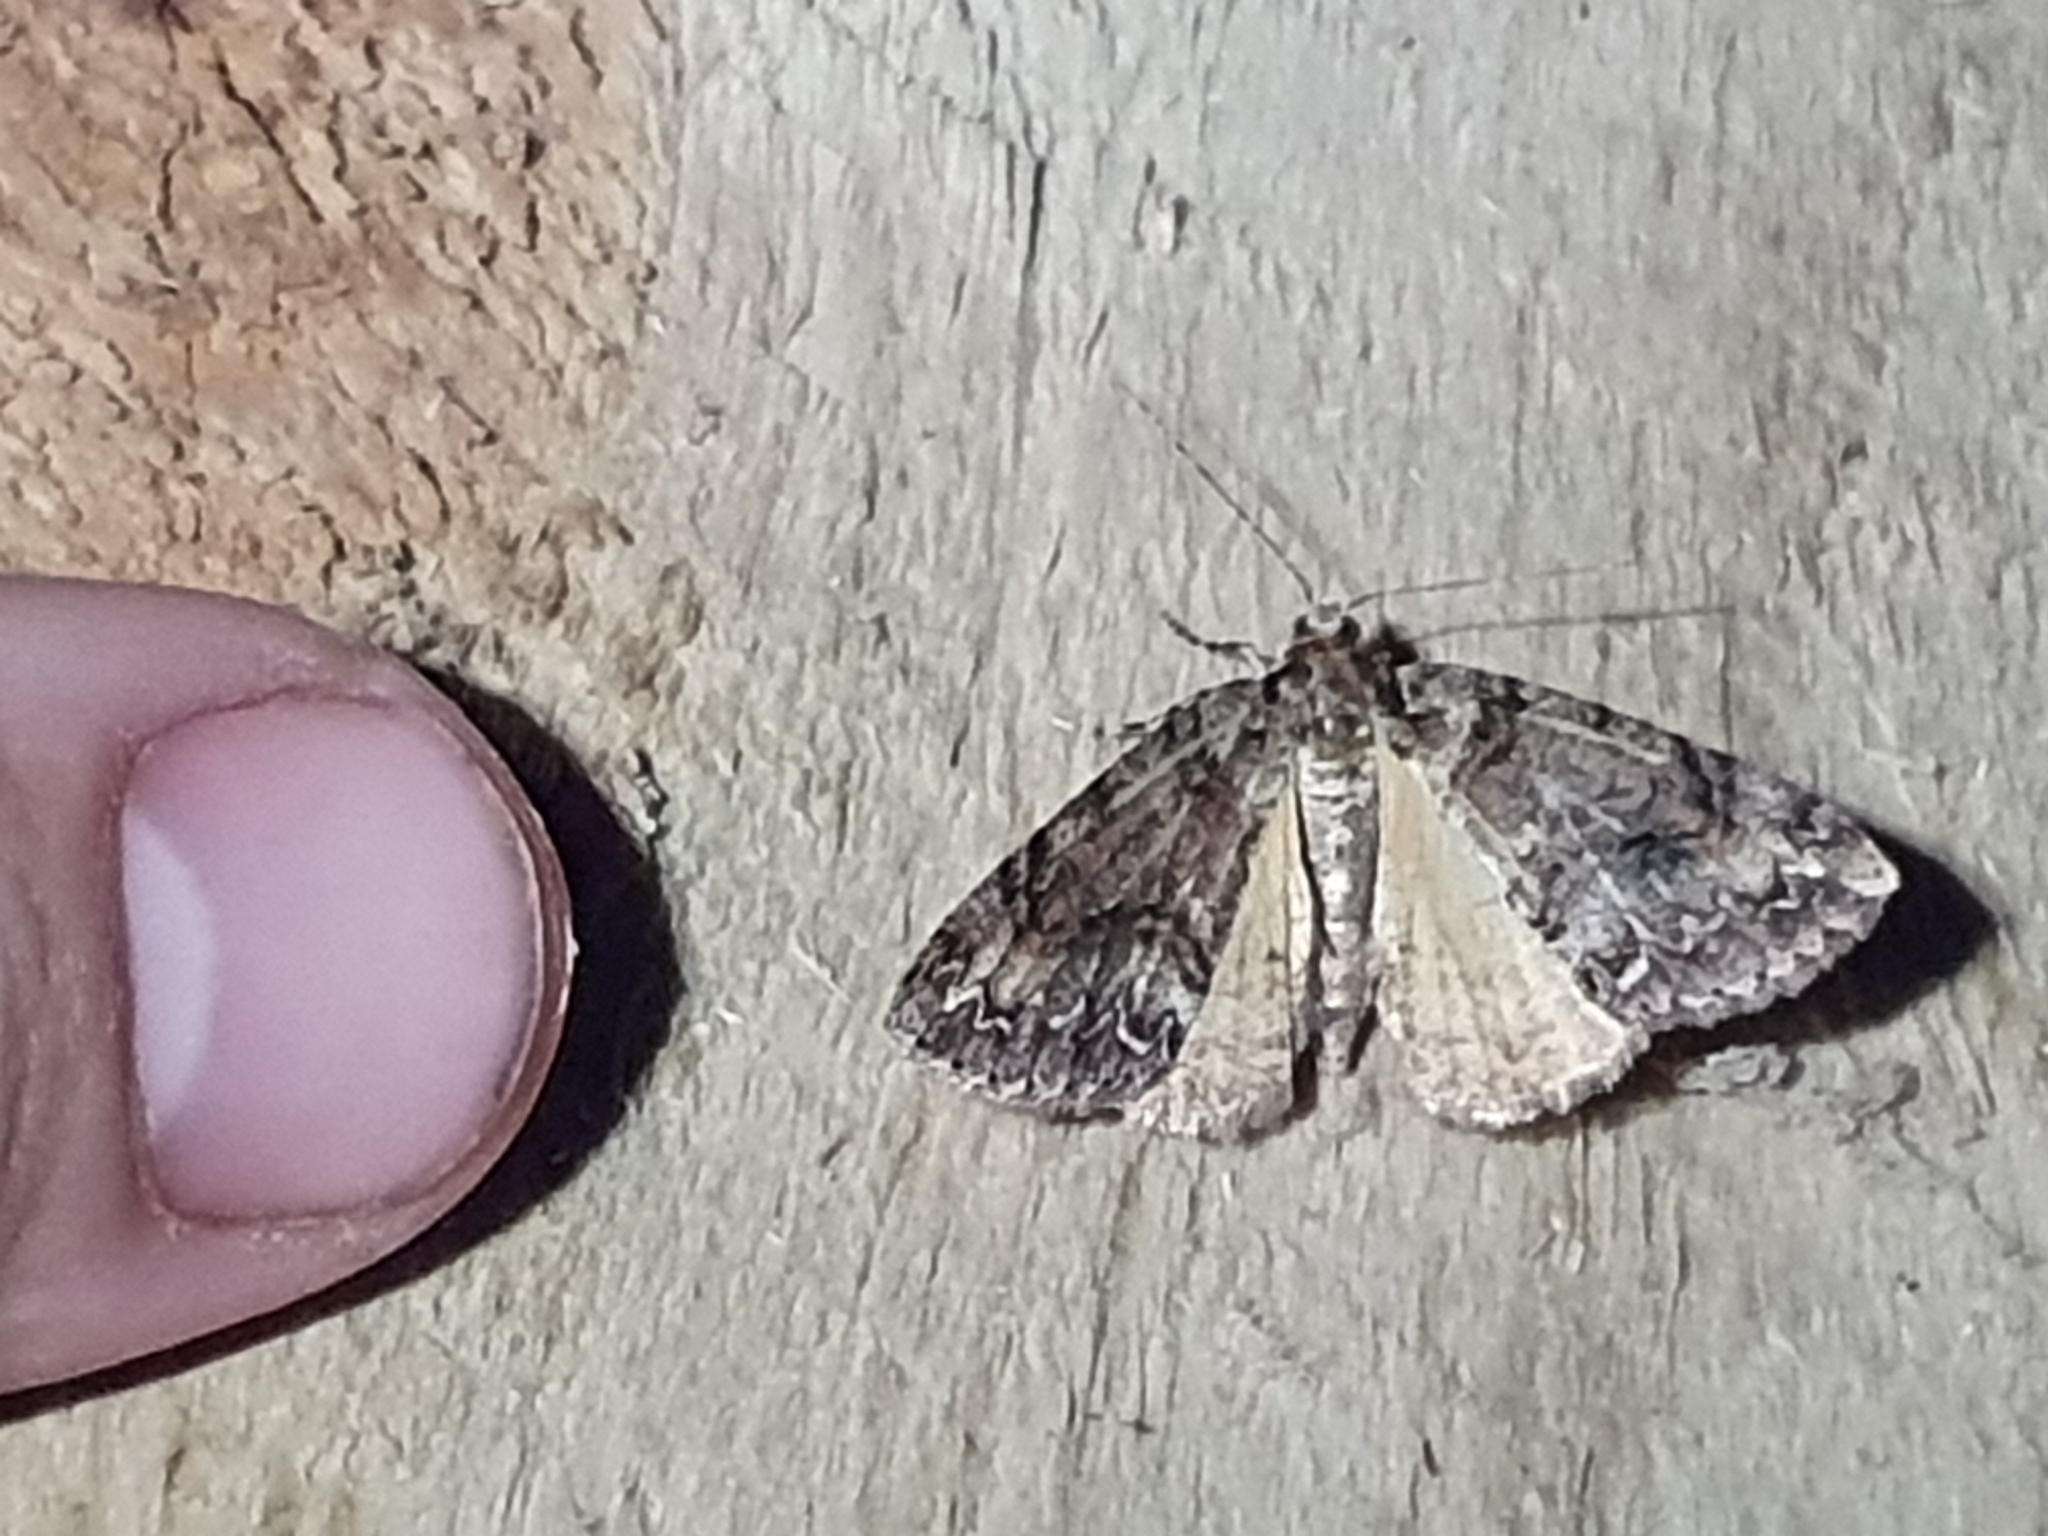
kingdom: Animalia
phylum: Arthropoda
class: Insecta
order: Lepidoptera
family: Geometridae
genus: Pseudocoremia
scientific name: Pseudocoremia suavis
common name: Common forest looper
